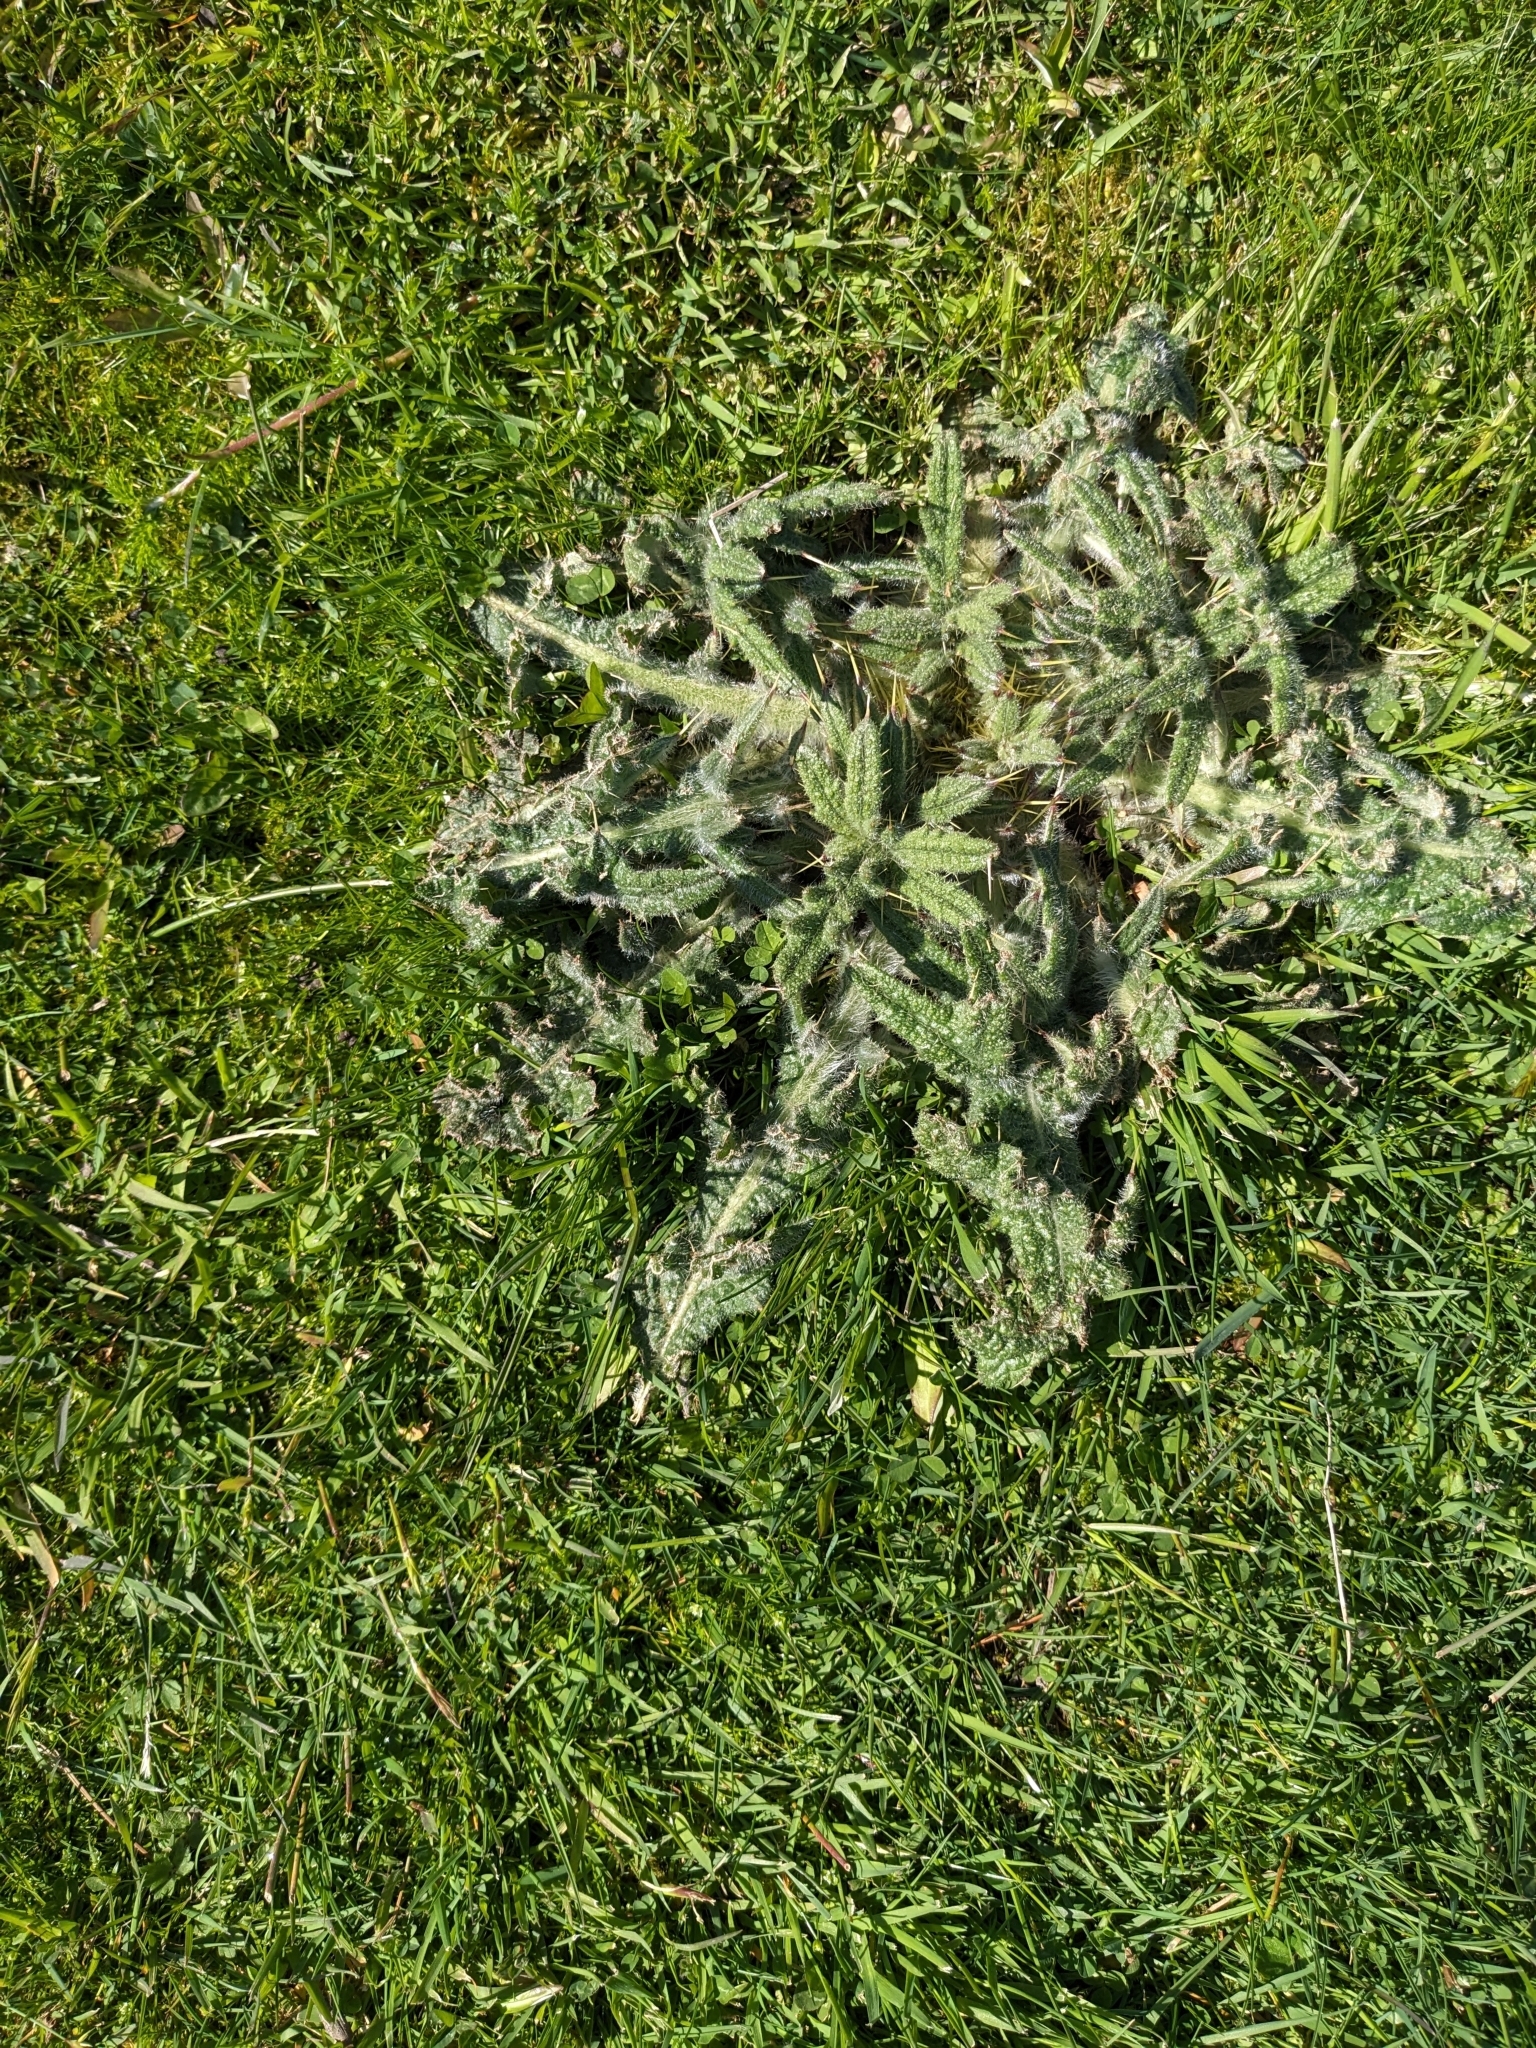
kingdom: Plantae
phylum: Tracheophyta
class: Magnoliopsida
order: Asterales
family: Asteraceae
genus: Cirsium
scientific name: Cirsium vulgare
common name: Bull thistle
